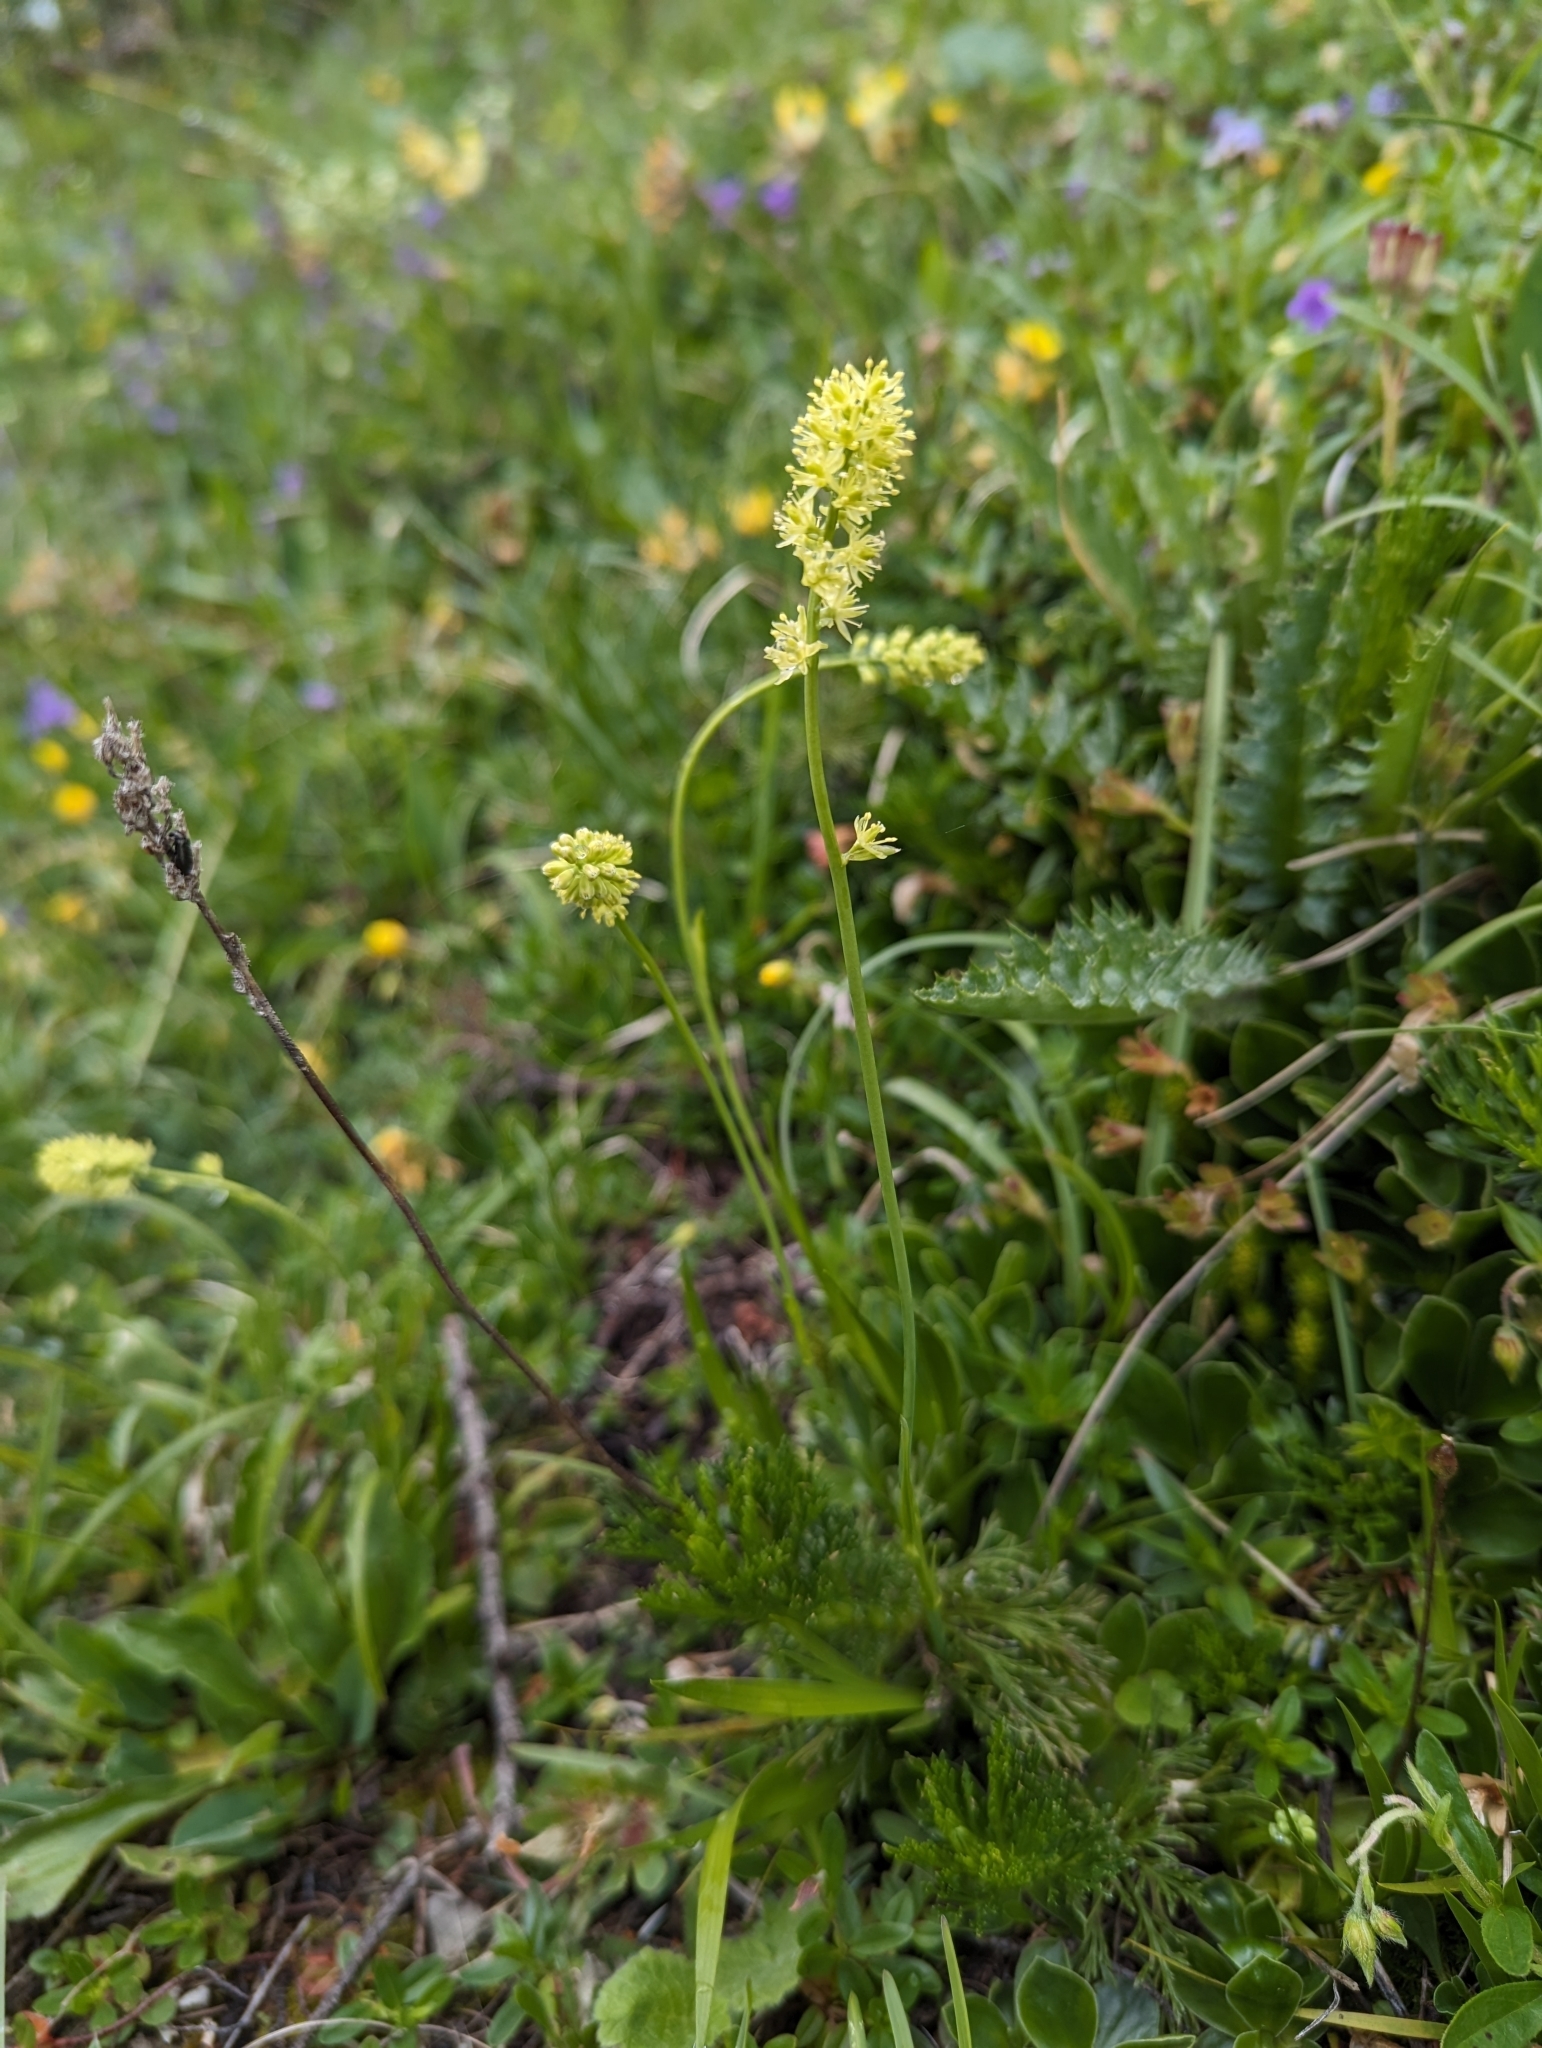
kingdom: Plantae
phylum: Tracheophyta
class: Liliopsida
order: Alismatales
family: Tofieldiaceae
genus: Tofieldia
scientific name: Tofieldia calyculata
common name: German-asphodel
